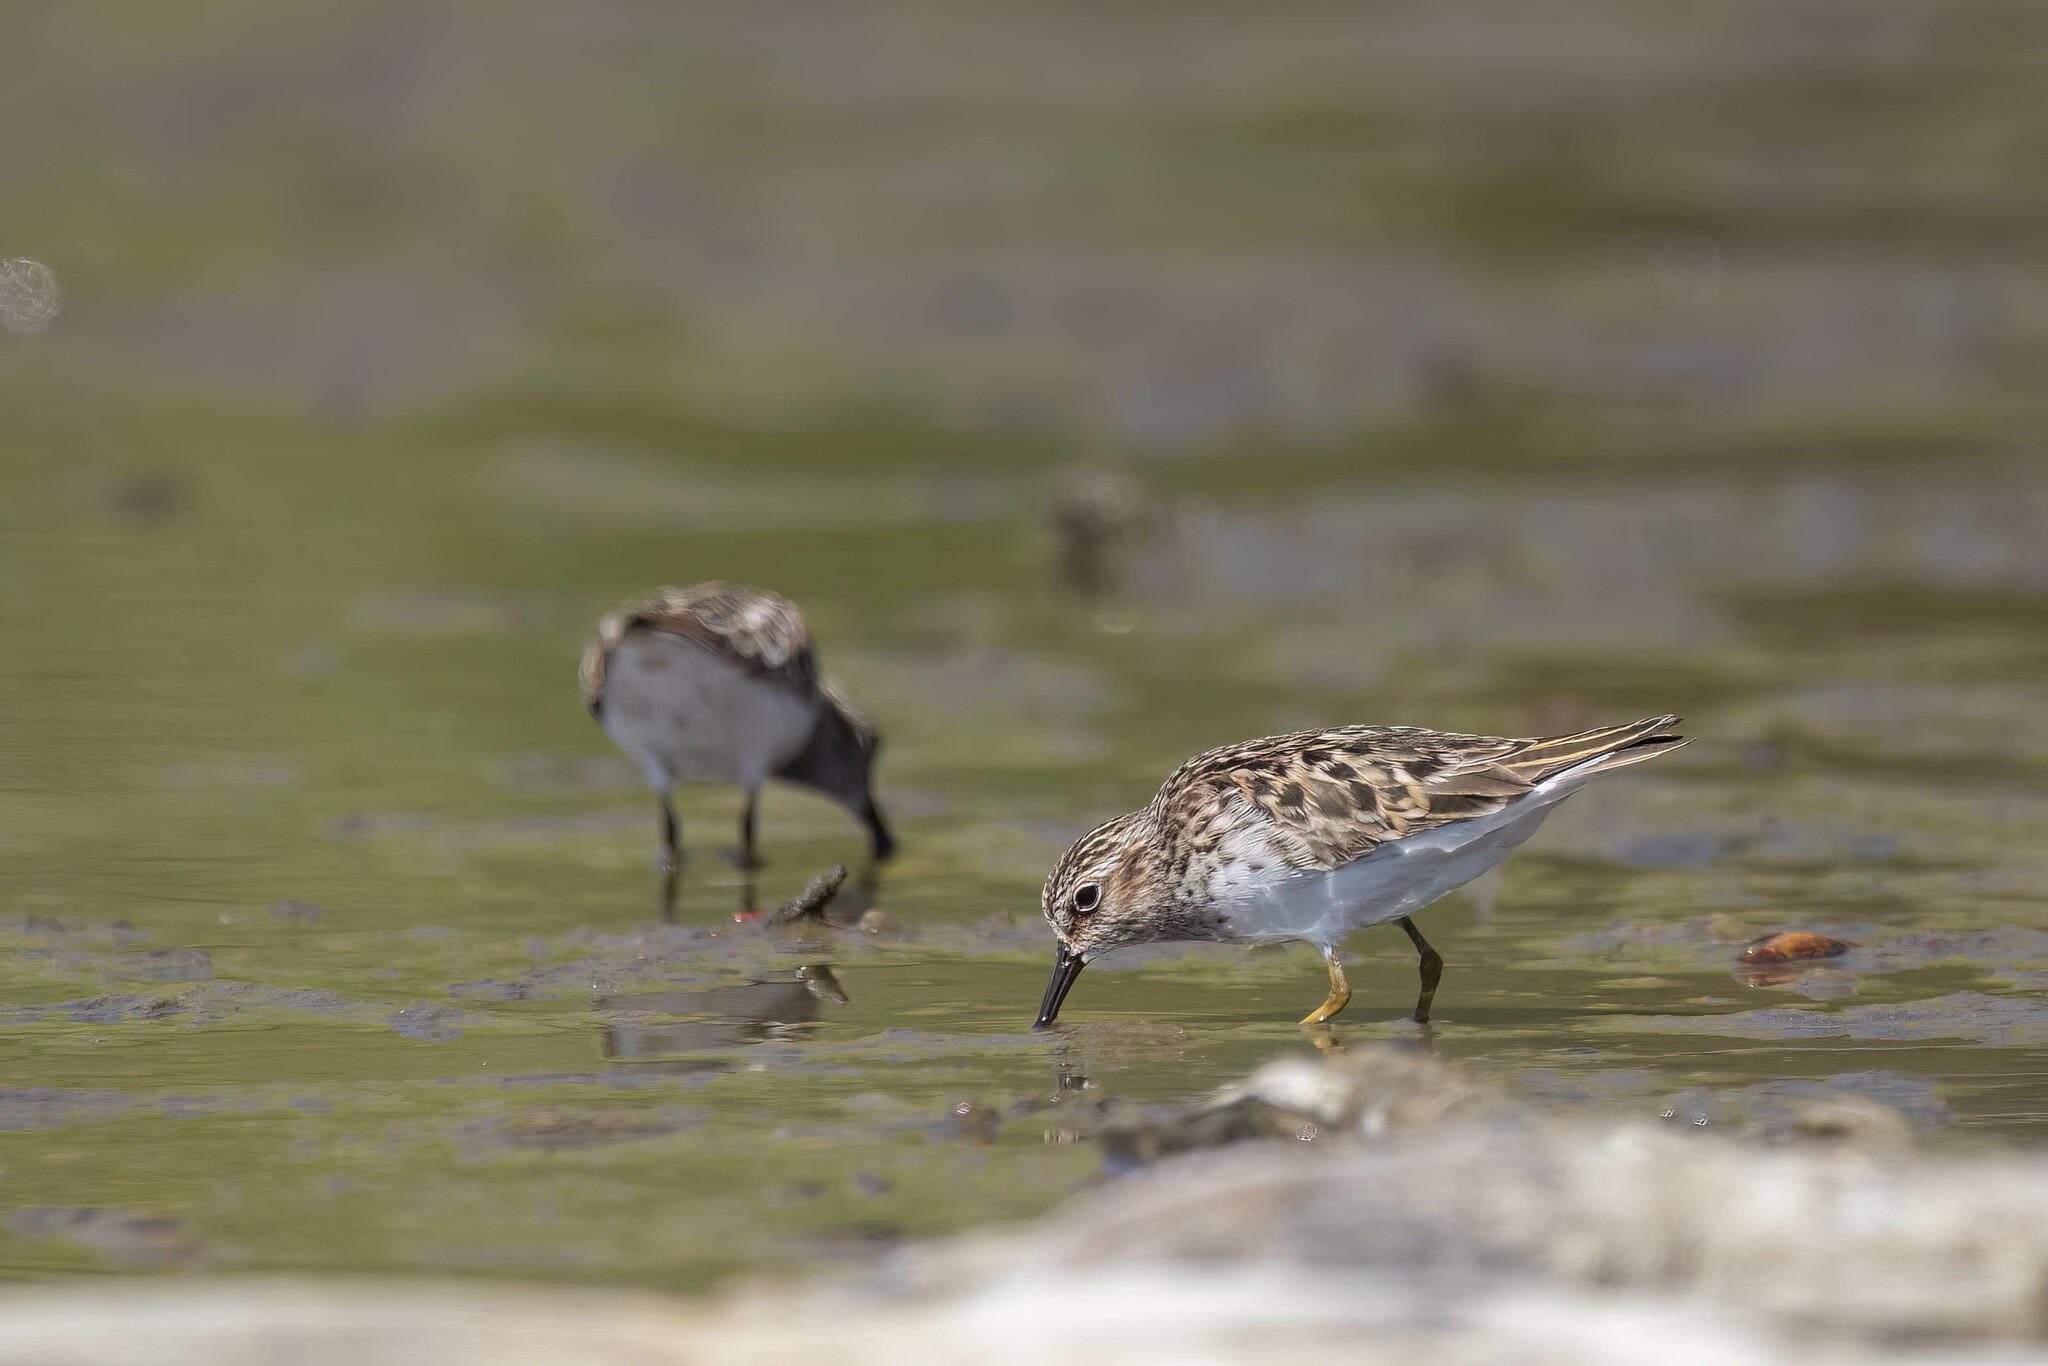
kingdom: Animalia
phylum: Chordata
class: Aves
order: Charadriiformes
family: Scolopacidae
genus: Calidris
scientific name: Calidris minutilla
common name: Least sandpiper
